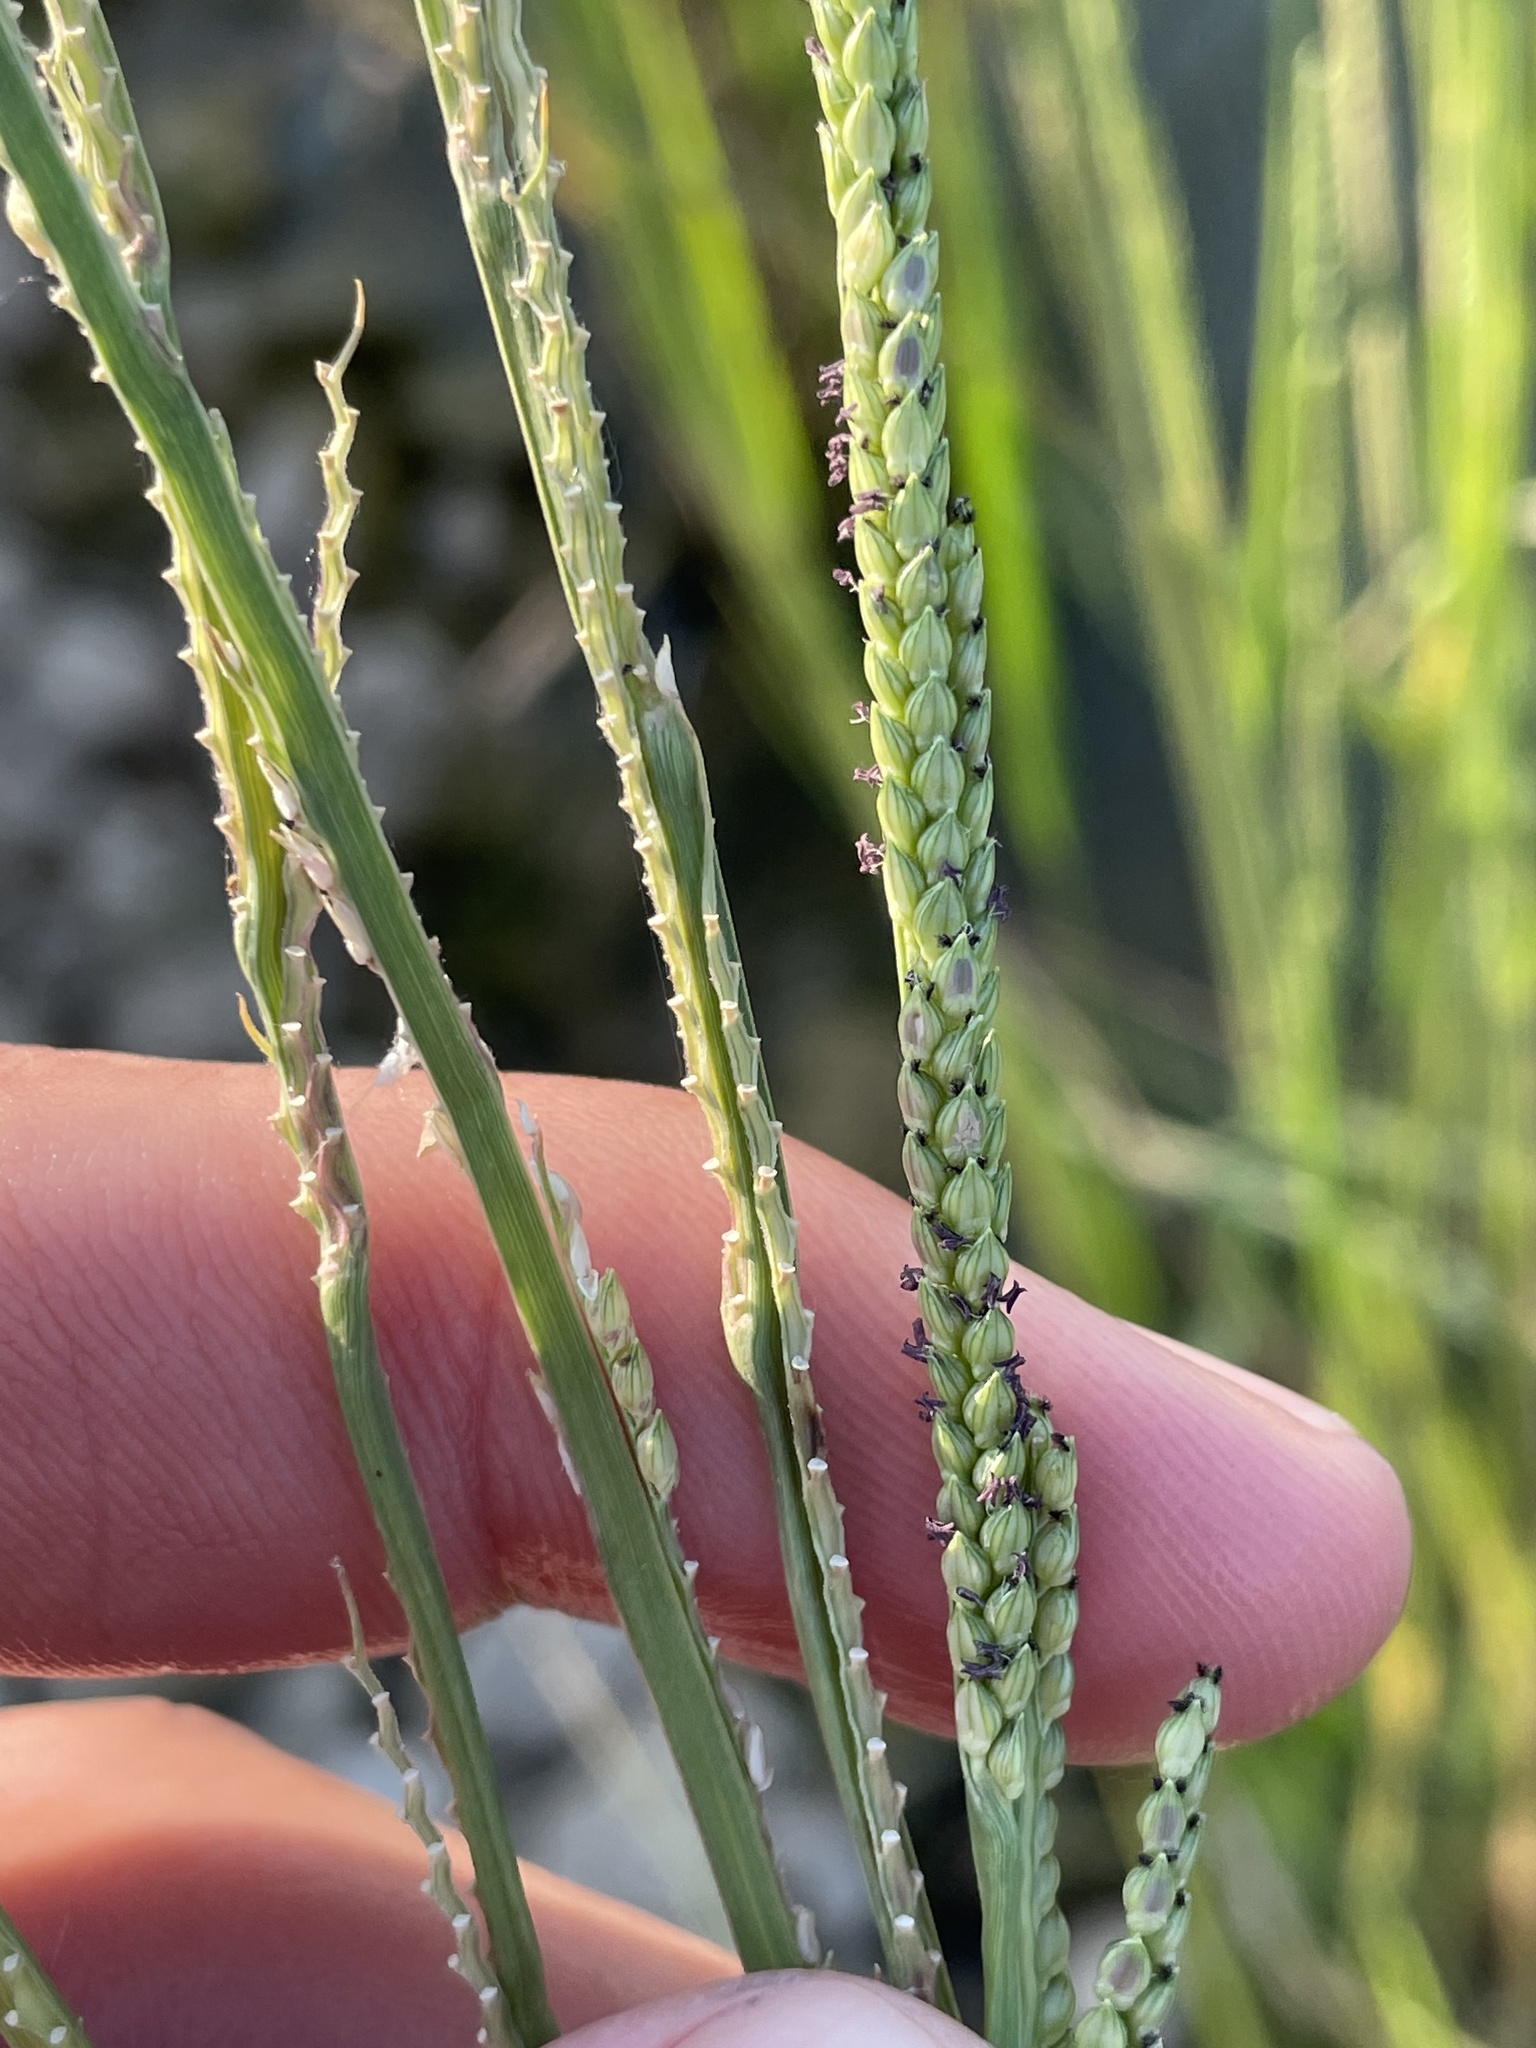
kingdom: Plantae
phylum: Tracheophyta
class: Liliopsida
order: Poales
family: Poaceae
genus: Setaria
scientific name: Setaria geminata
